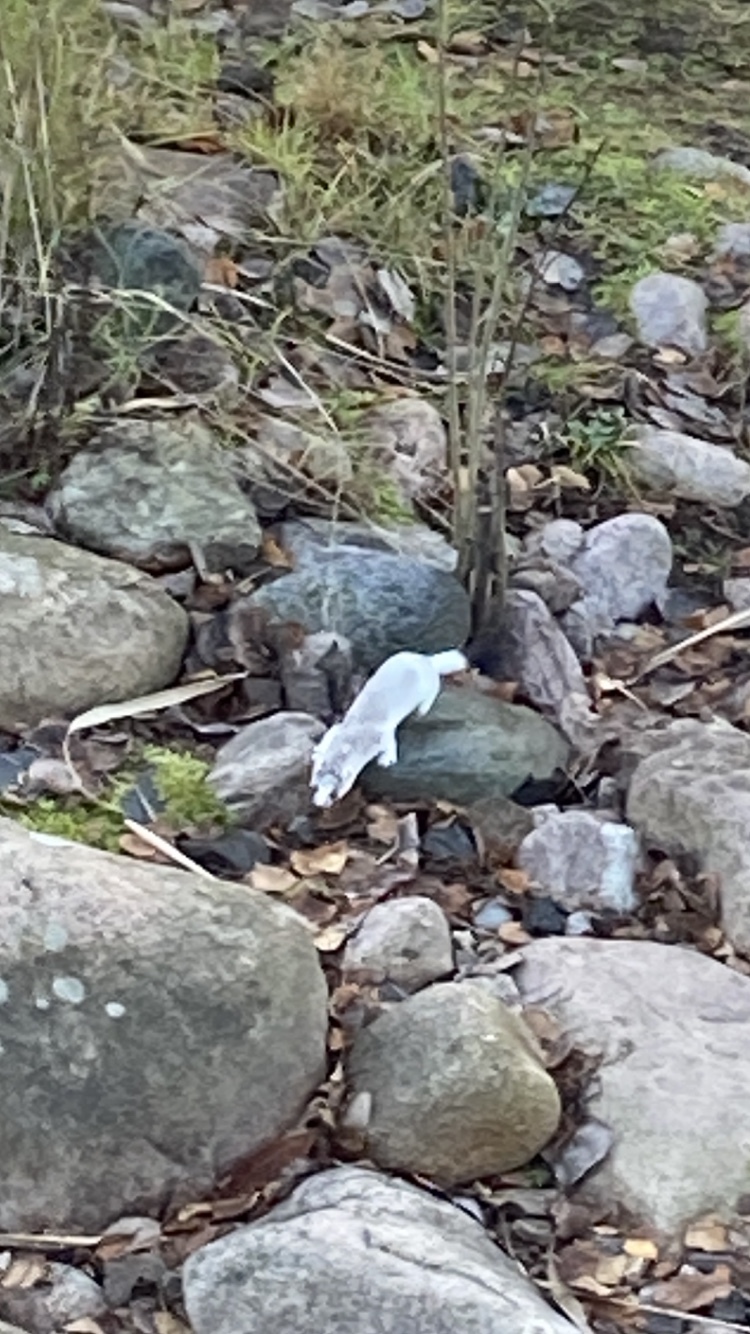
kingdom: Animalia
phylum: Chordata
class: Mammalia
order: Carnivora
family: Mustelidae
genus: Mustela
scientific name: Mustela erminea
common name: Stoat
